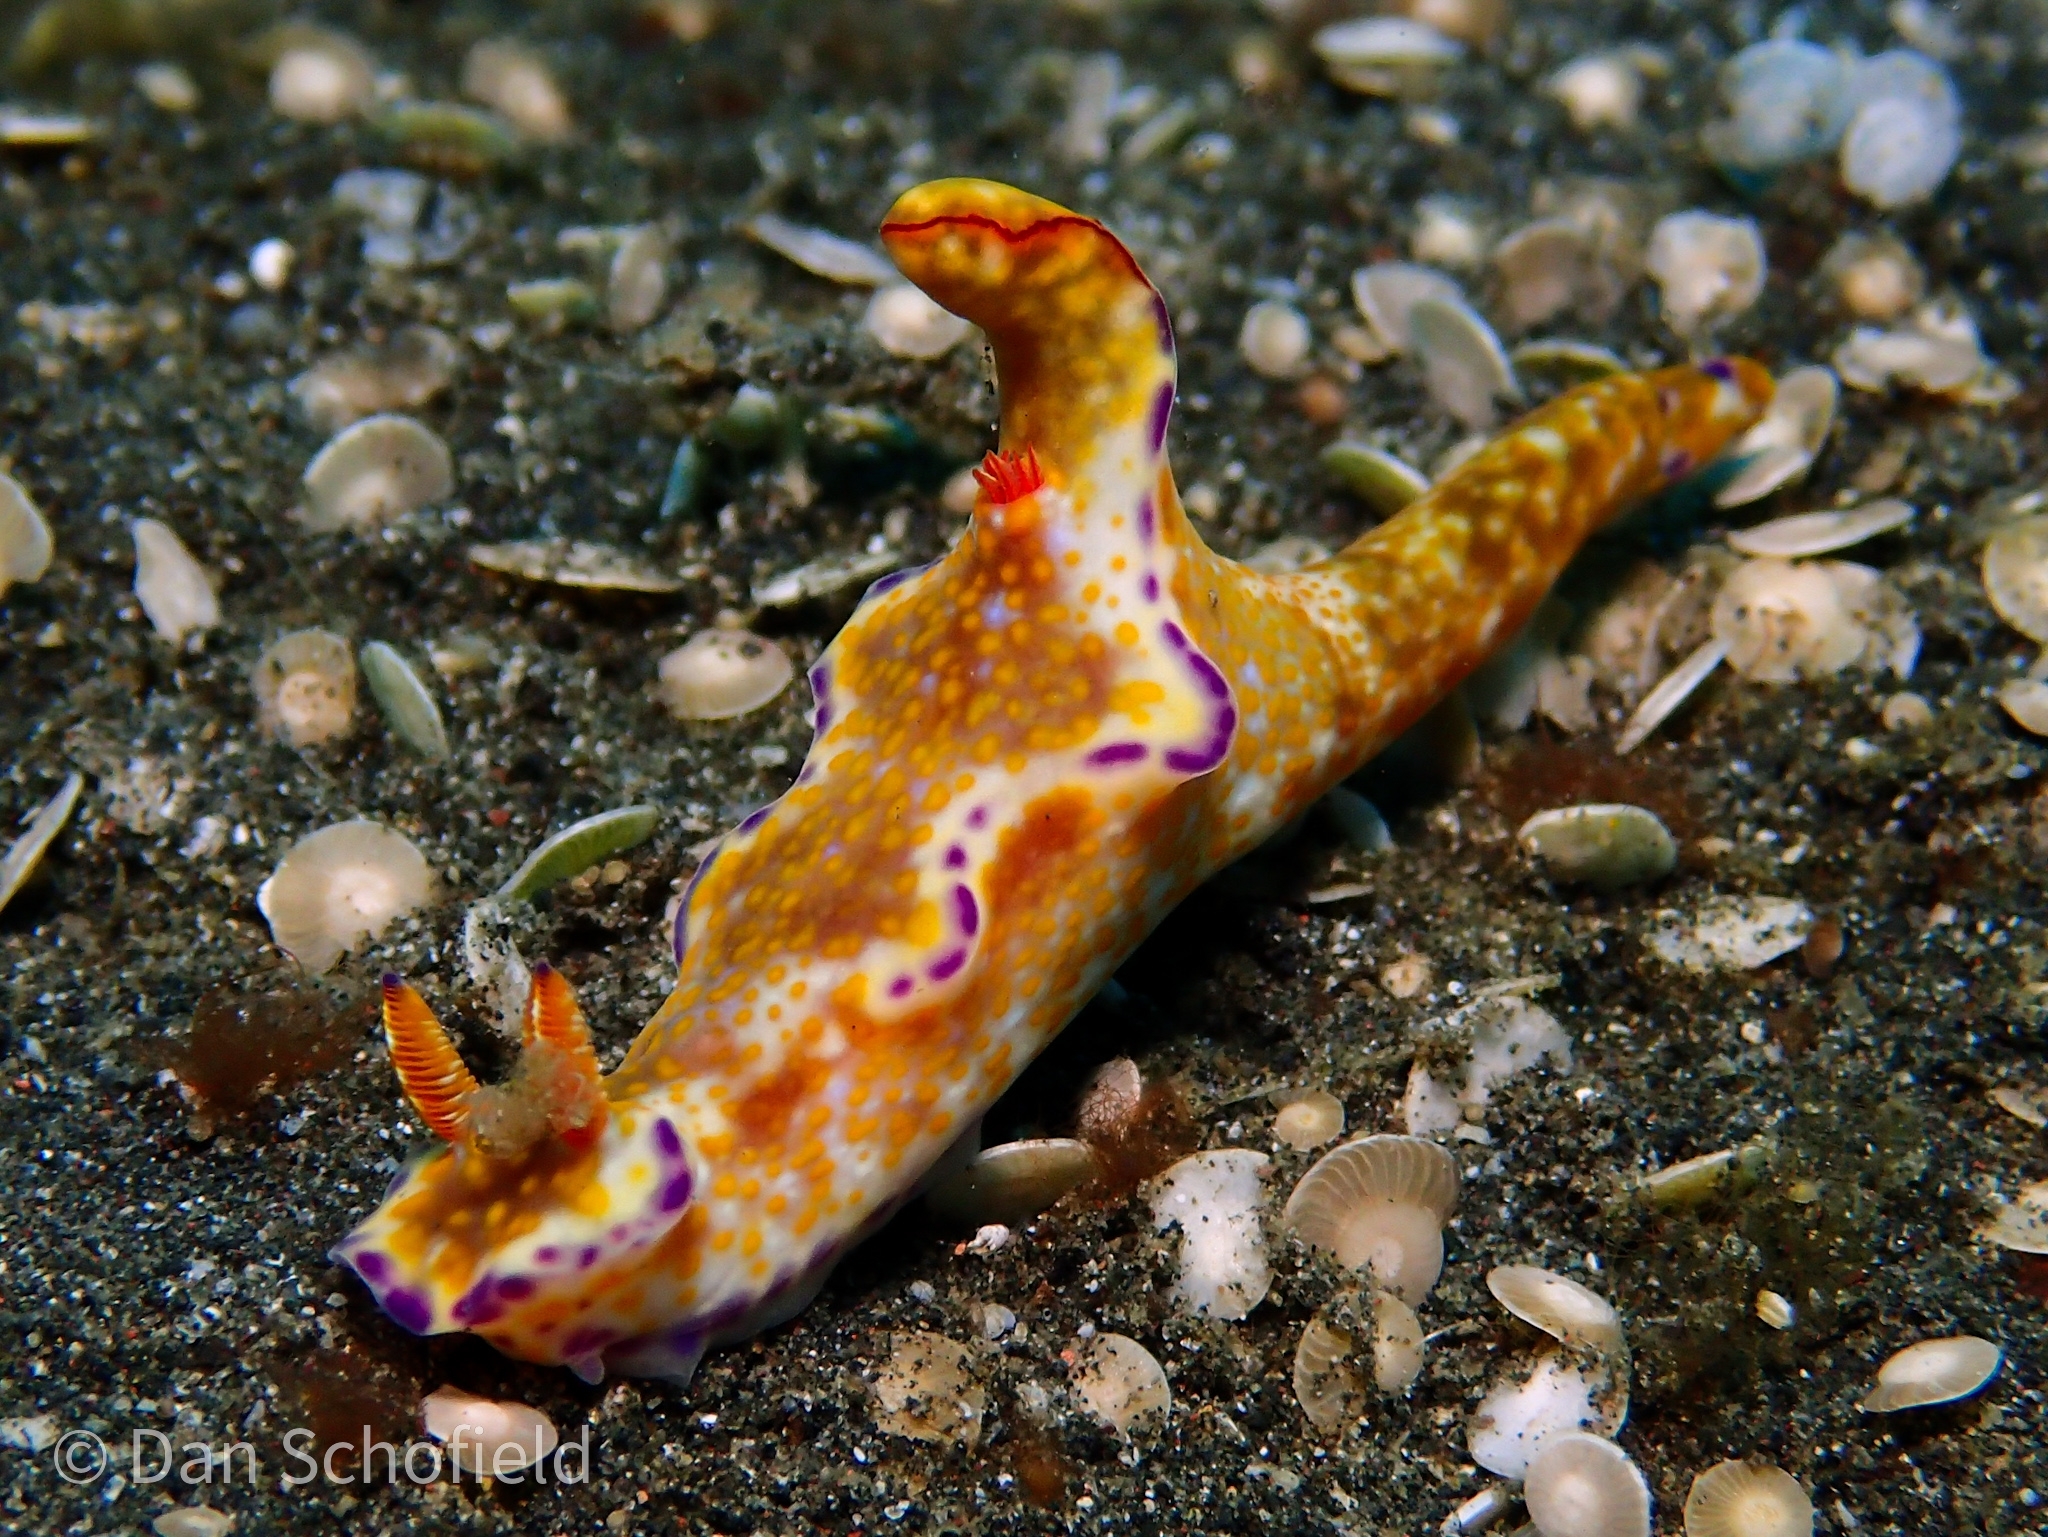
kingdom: Animalia
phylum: Mollusca
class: Gastropoda
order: Nudibranchia
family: Chromodorididae
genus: Ceratosoma
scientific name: Ceratosoma tenue
